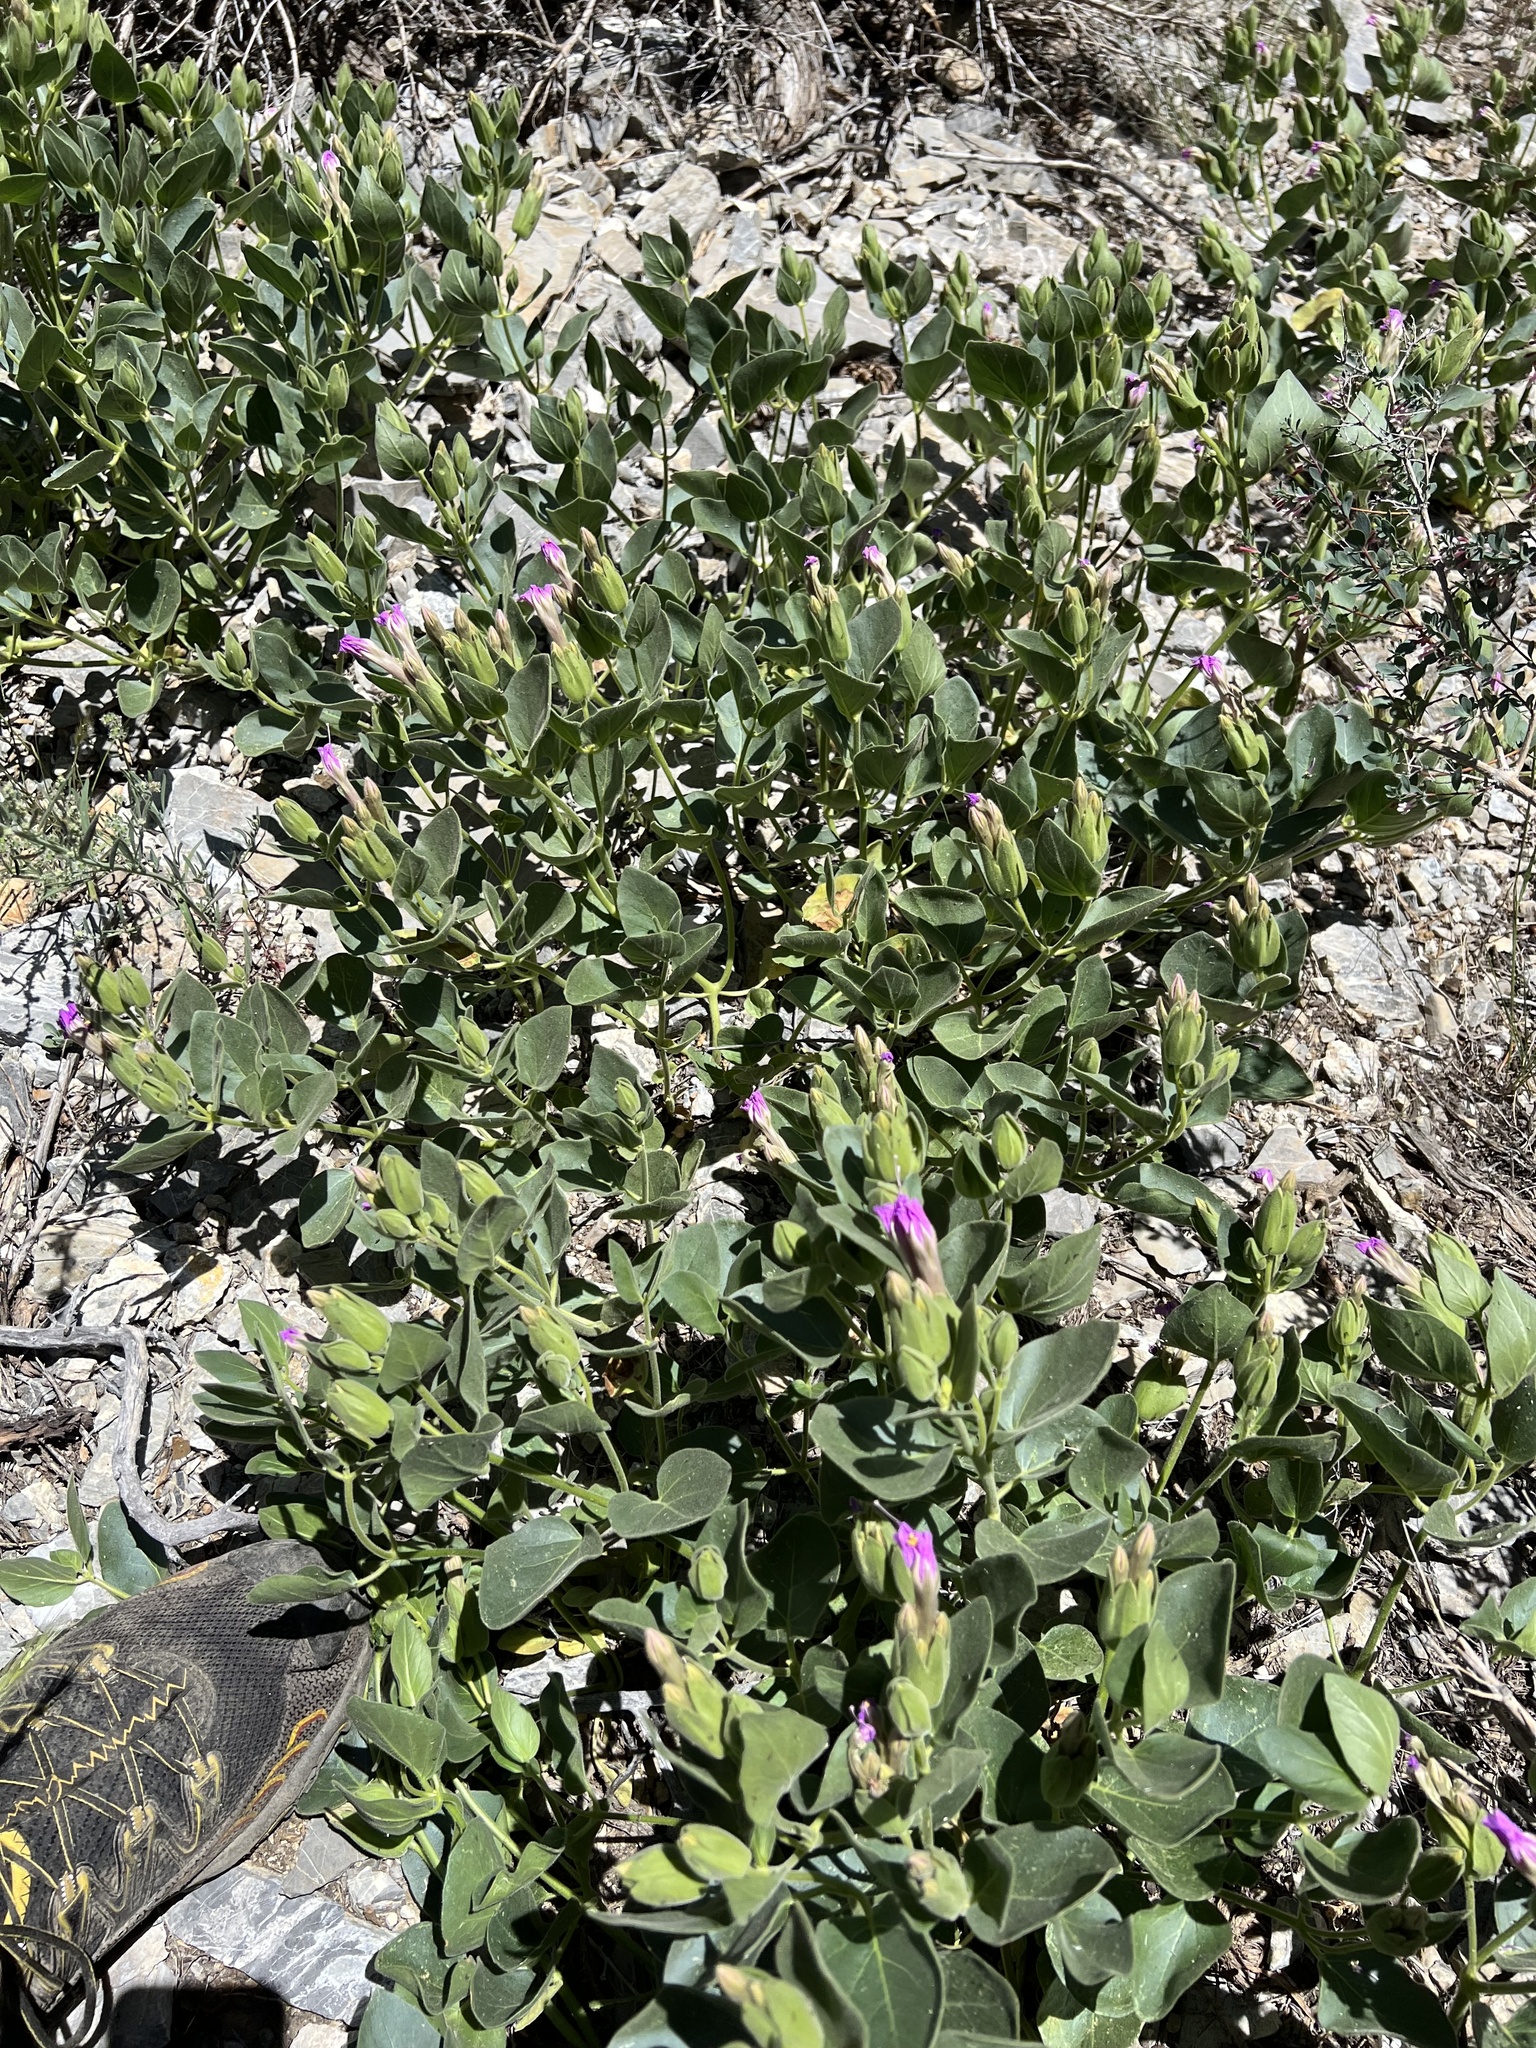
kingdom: Plantae
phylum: Tracheophyta
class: Magnoliopsida
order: Caryophyllales
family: Nyctaginaceae
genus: Mirabilis
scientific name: Mirabilis multiflora
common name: Froebel's four-o'clock
